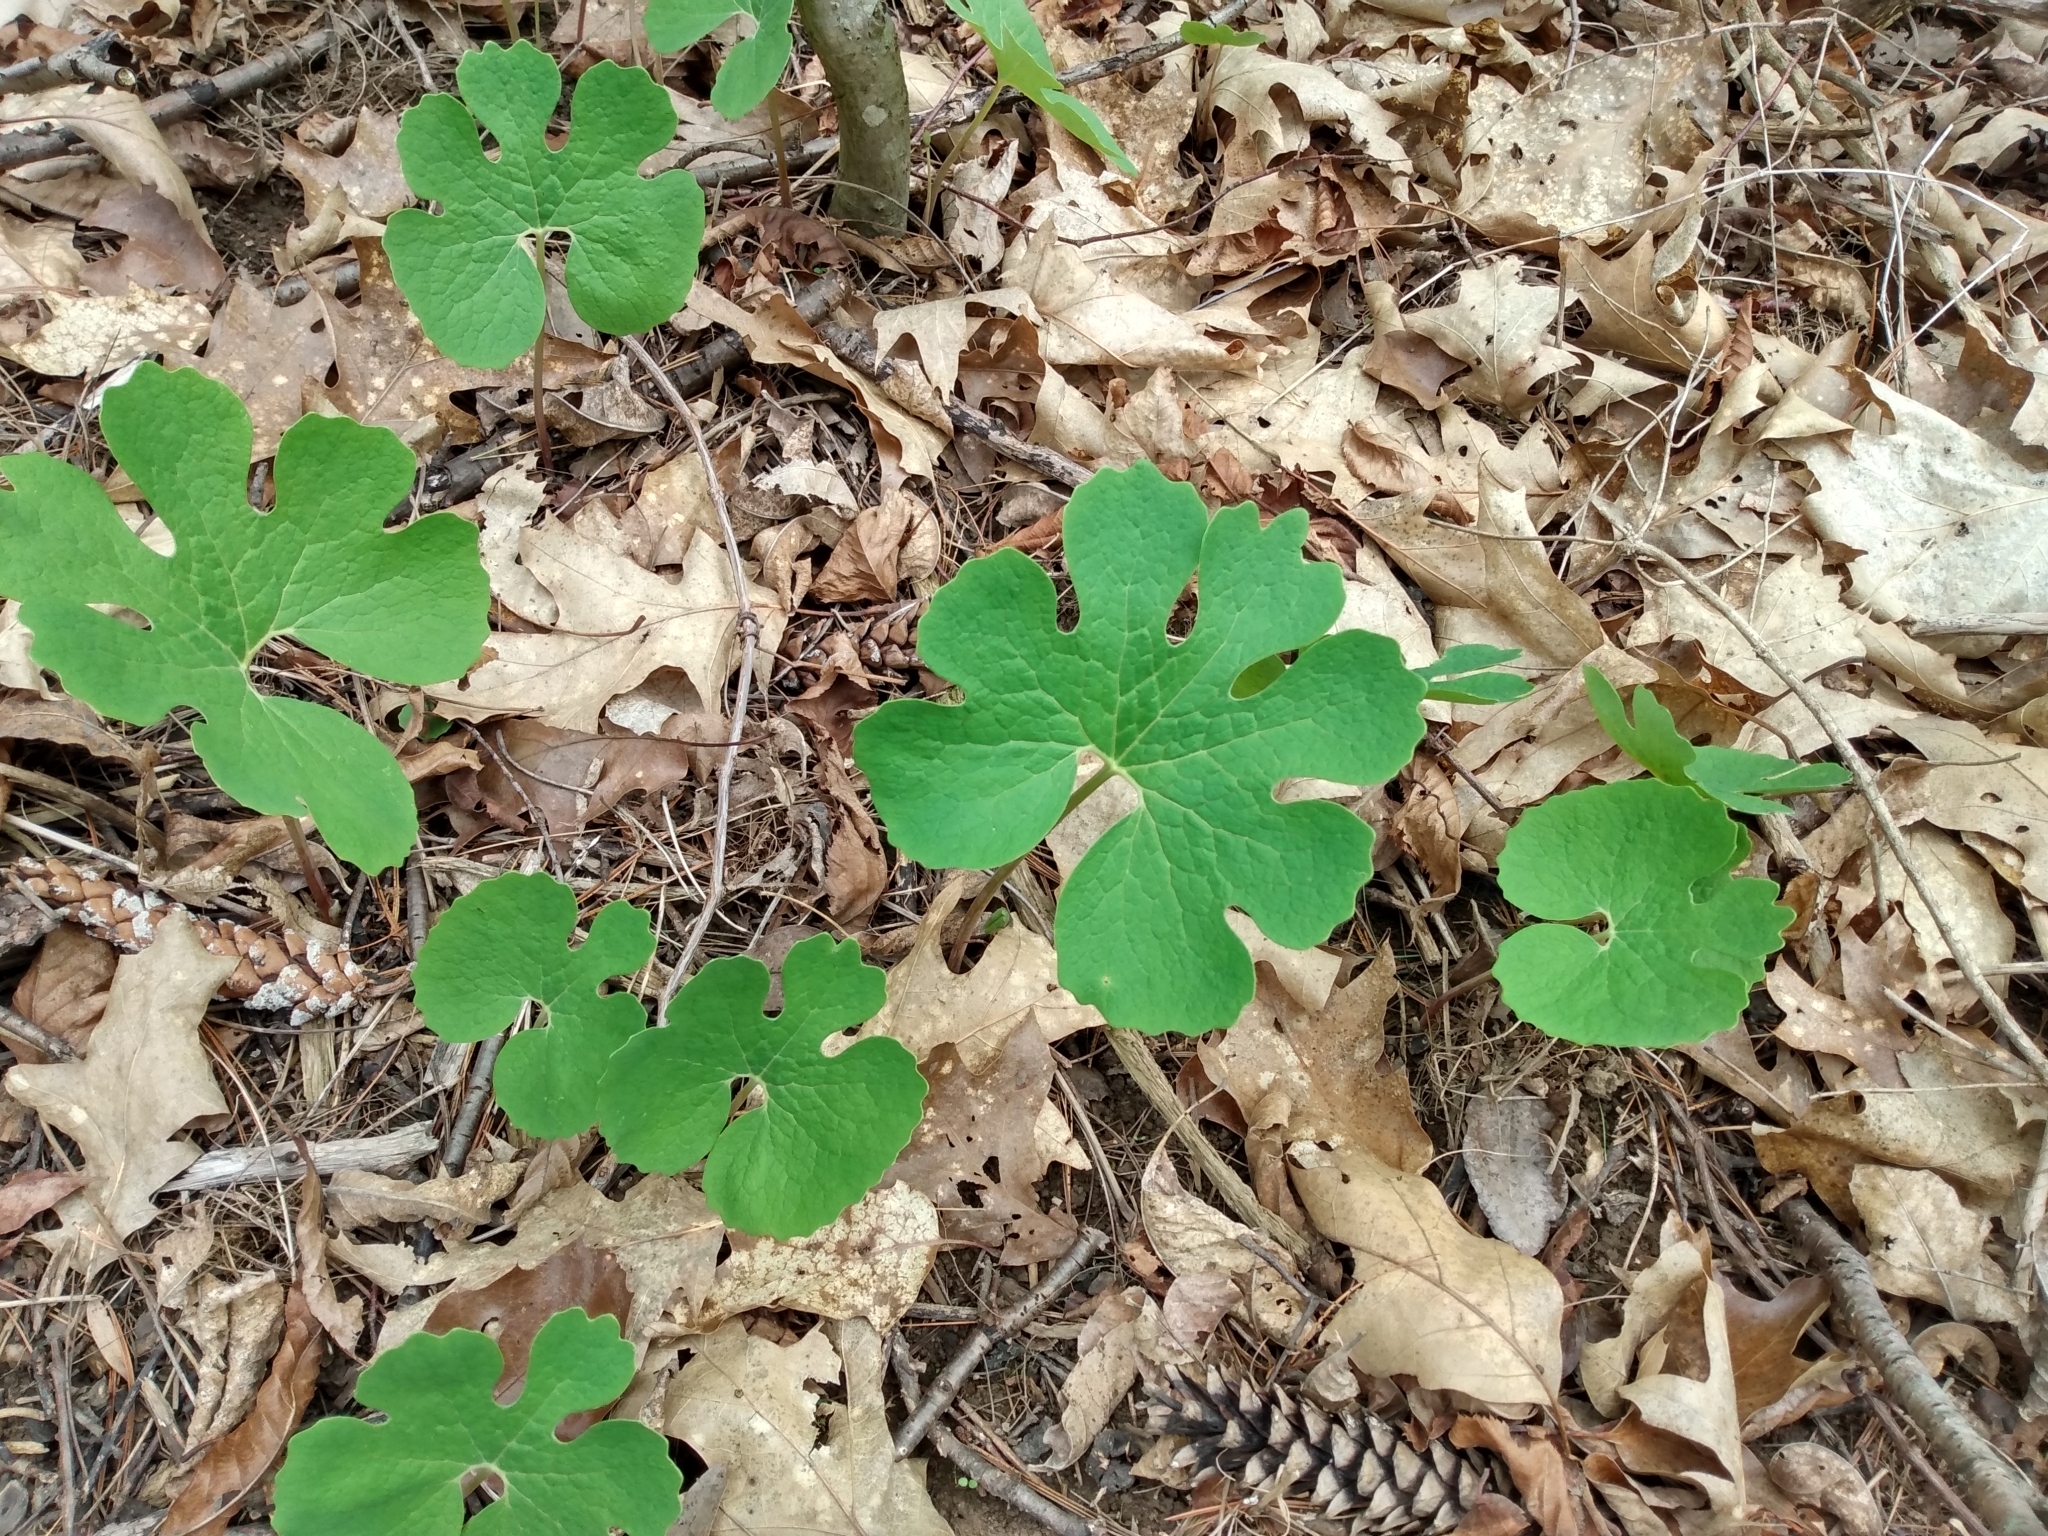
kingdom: Plantae
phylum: Tracheophyta
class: Magnoliopsida
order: Ranunculales
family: Papaveraceae
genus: Sanguinaria
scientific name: Sanguinaria canadensis
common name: Bloodroot
